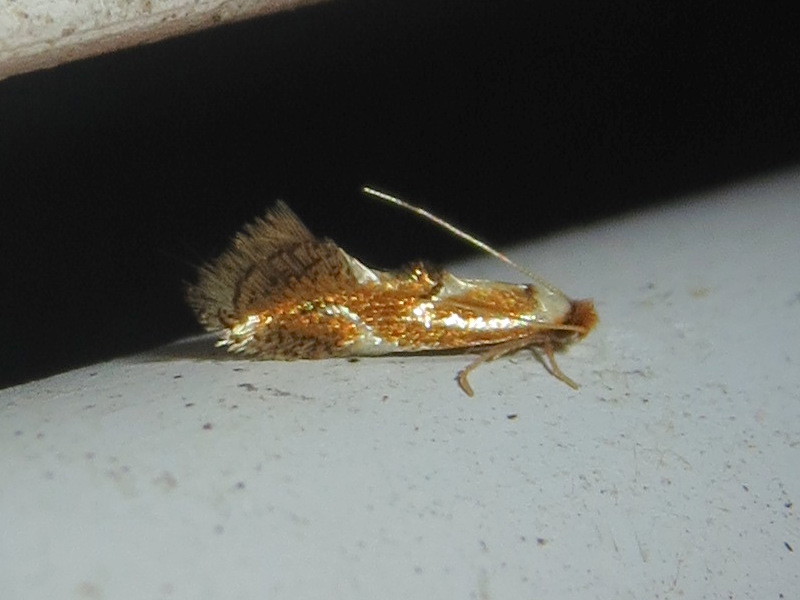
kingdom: Animalia
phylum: Arthropoda
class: Insecta
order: Lepidoptera
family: Lyonetiidae
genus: Philonome
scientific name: Philonome clemensella
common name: Clemen's philonome moth
